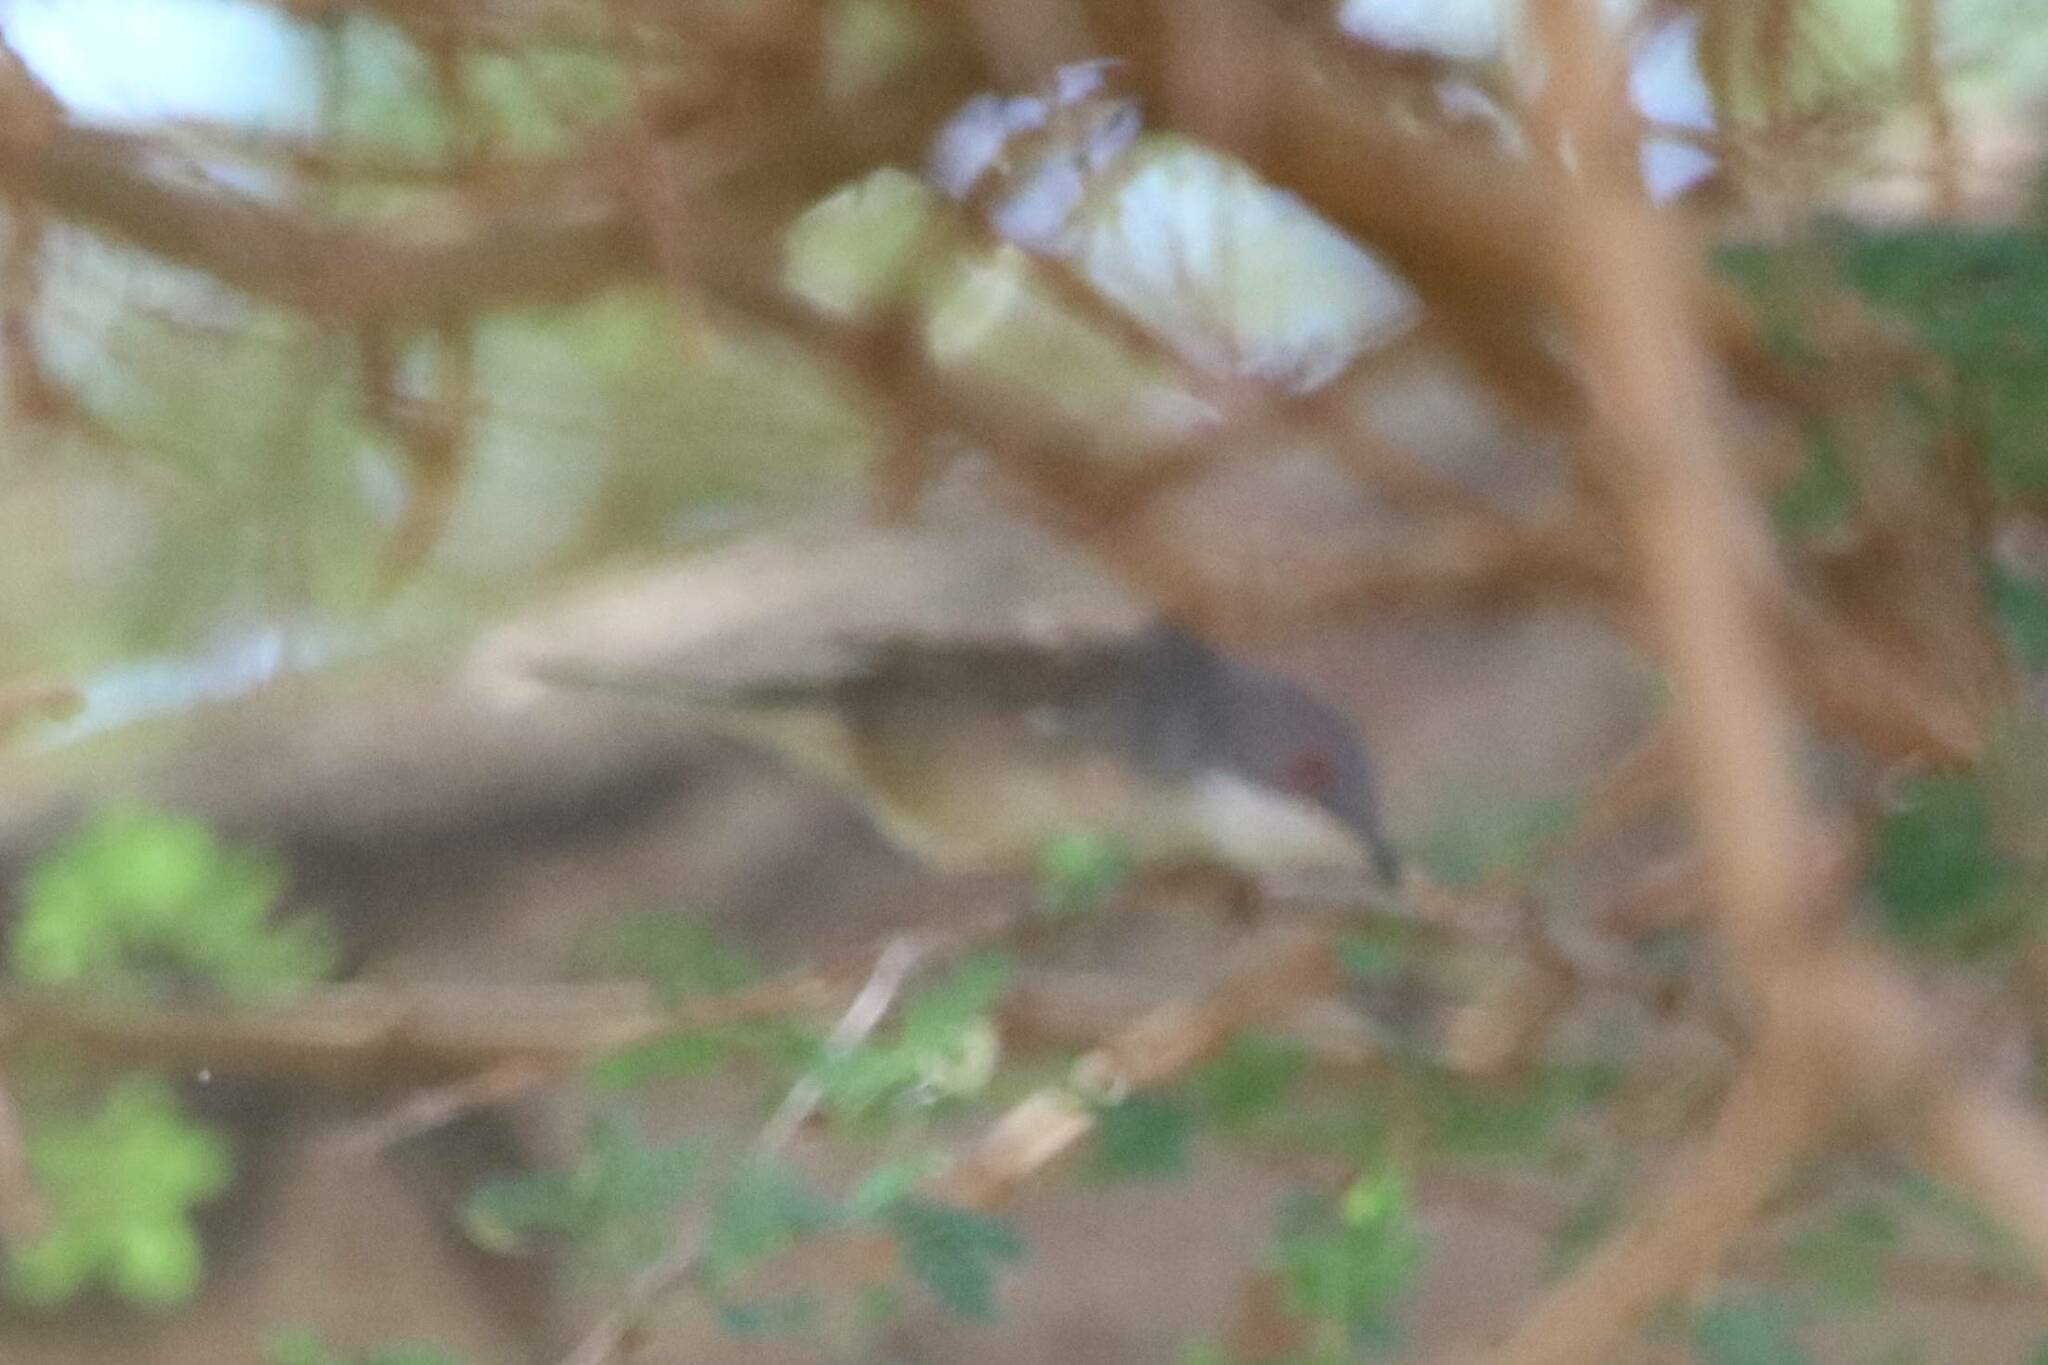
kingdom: Animalia
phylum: Chordata
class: Aves
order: Passeriformes
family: Sylviidae
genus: Curruca
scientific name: Curruca melanocephala
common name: Sardinian warbler
